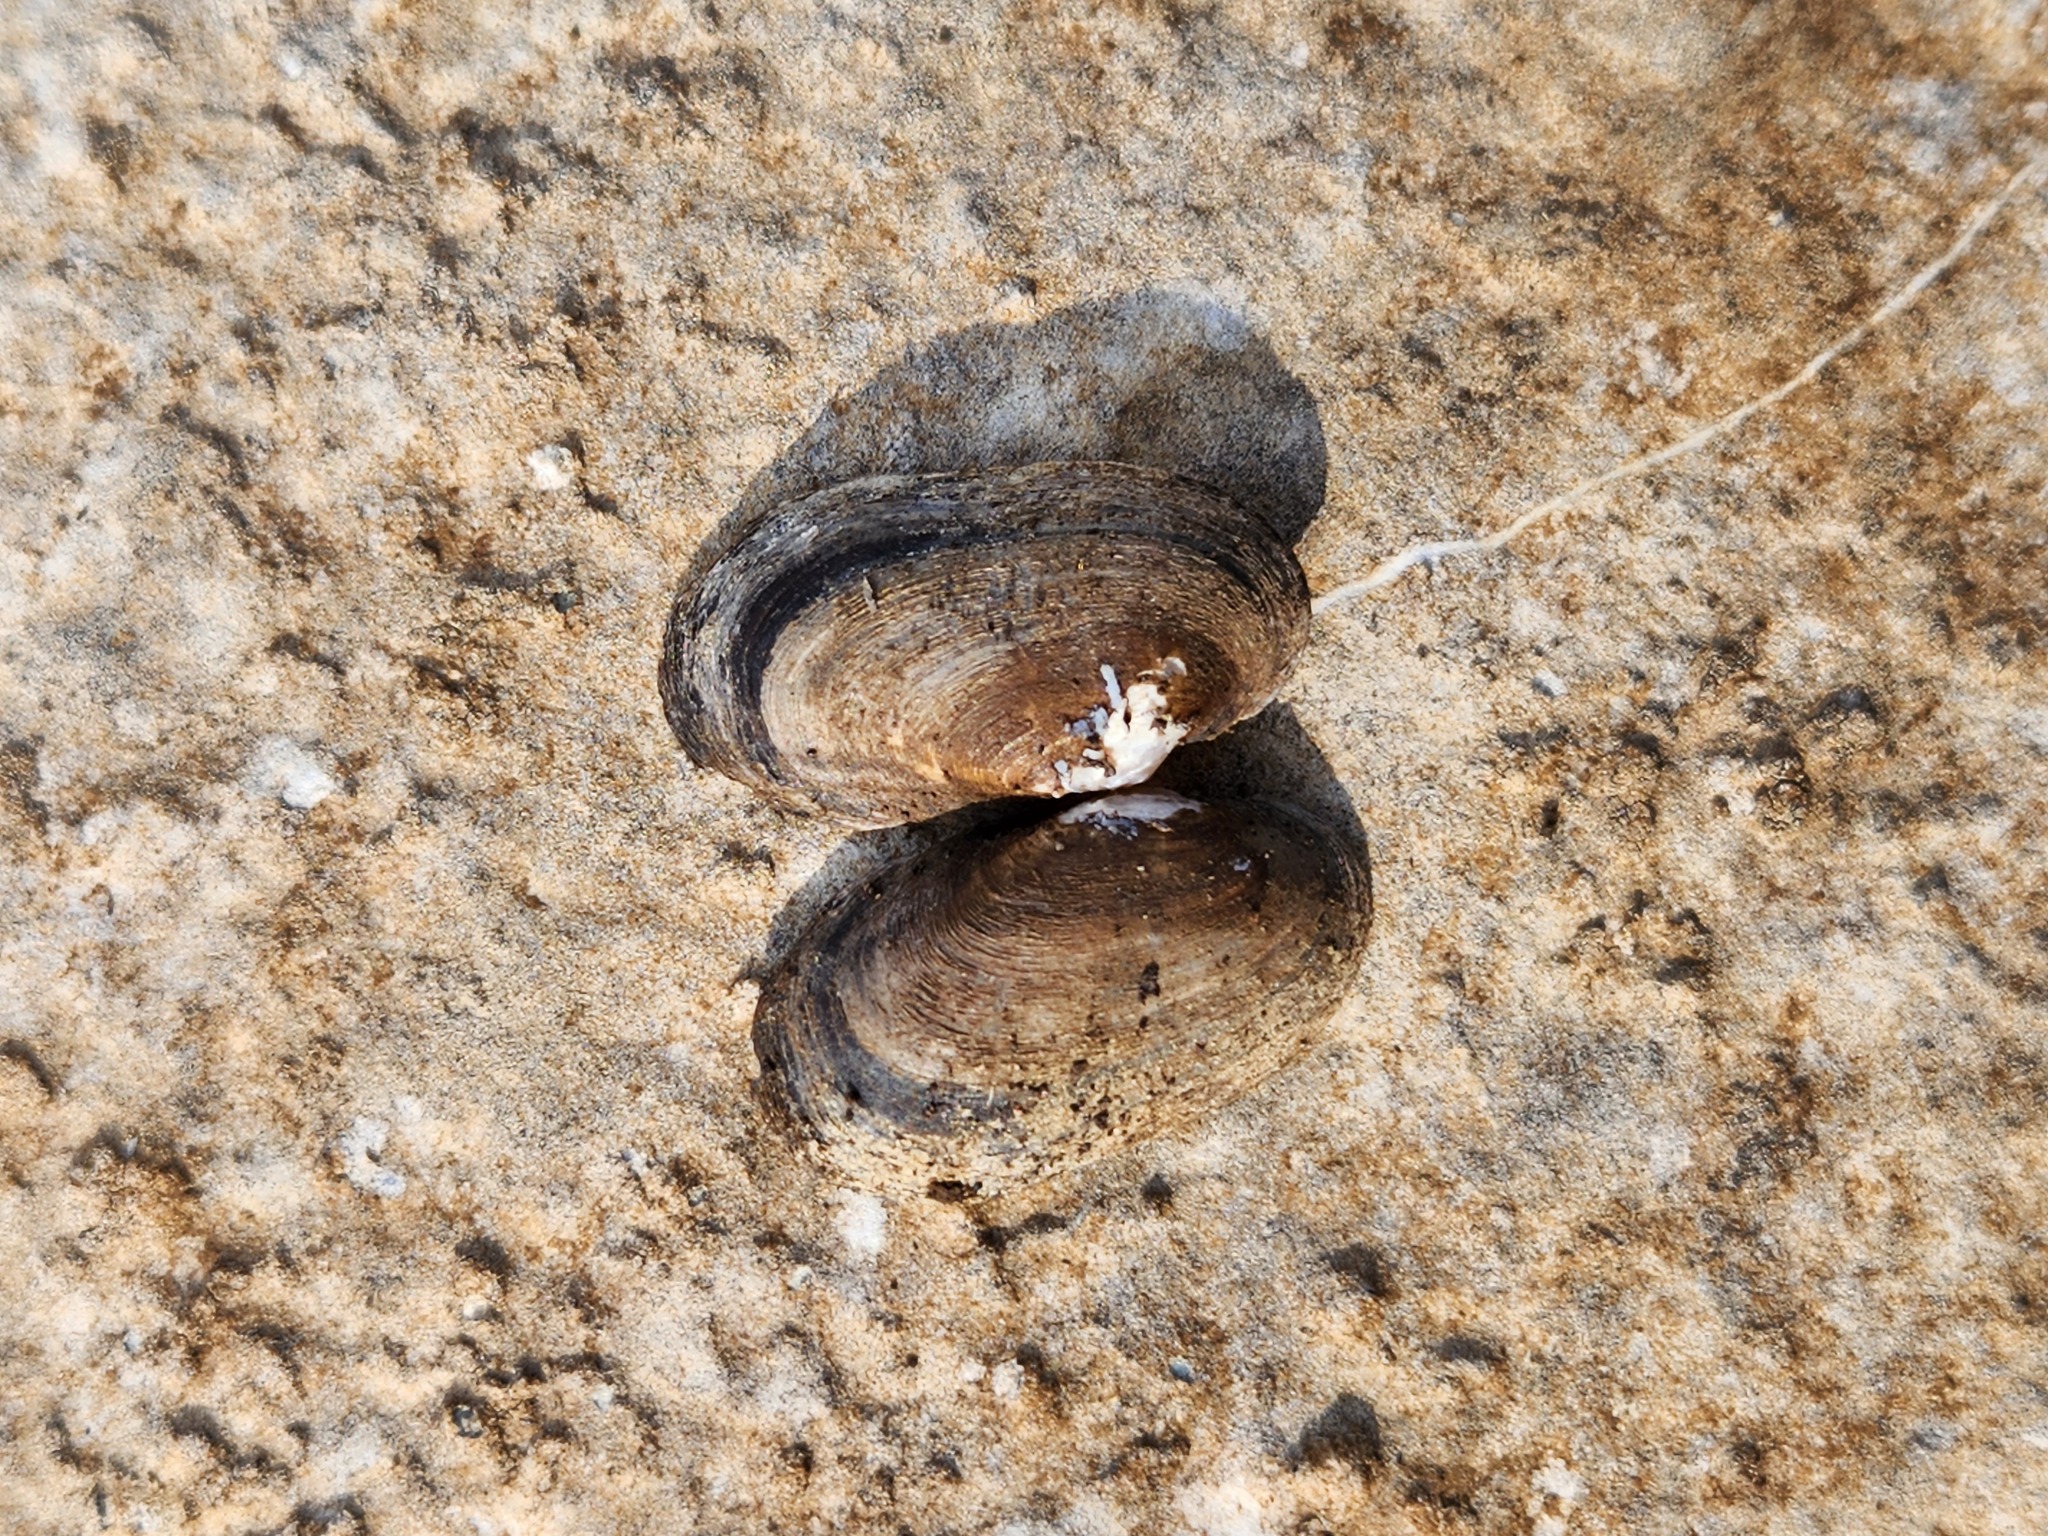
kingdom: Animalia
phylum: Mollusca
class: Bivalvia
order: Unionida
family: Unionidae
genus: Toxolasma
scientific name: Toxolasma parvum
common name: Lilliput
